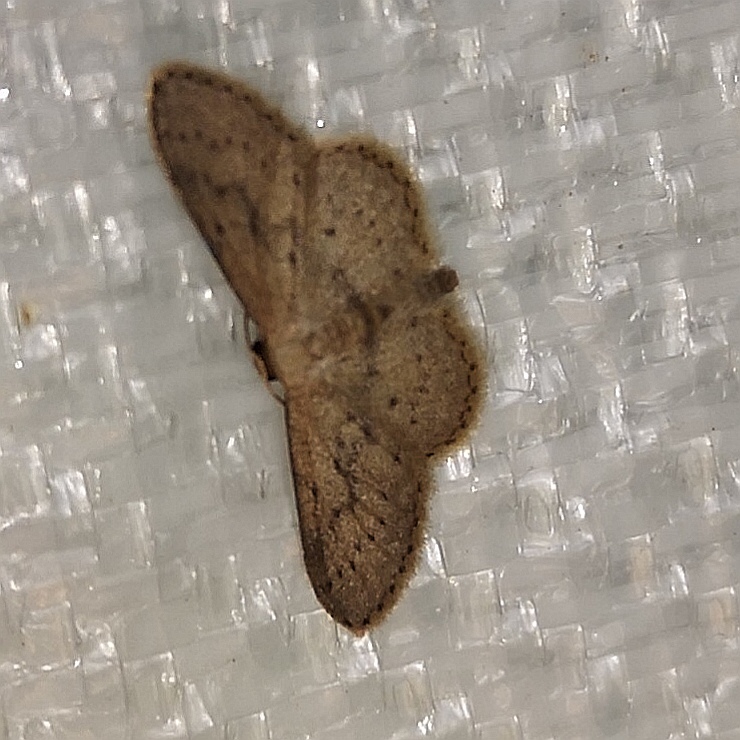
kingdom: Animalia
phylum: Arthropoda
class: Insecta
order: Lepidoptera
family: Geometridae
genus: Idaea
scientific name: Idaea seriata
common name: Small dusty wave
